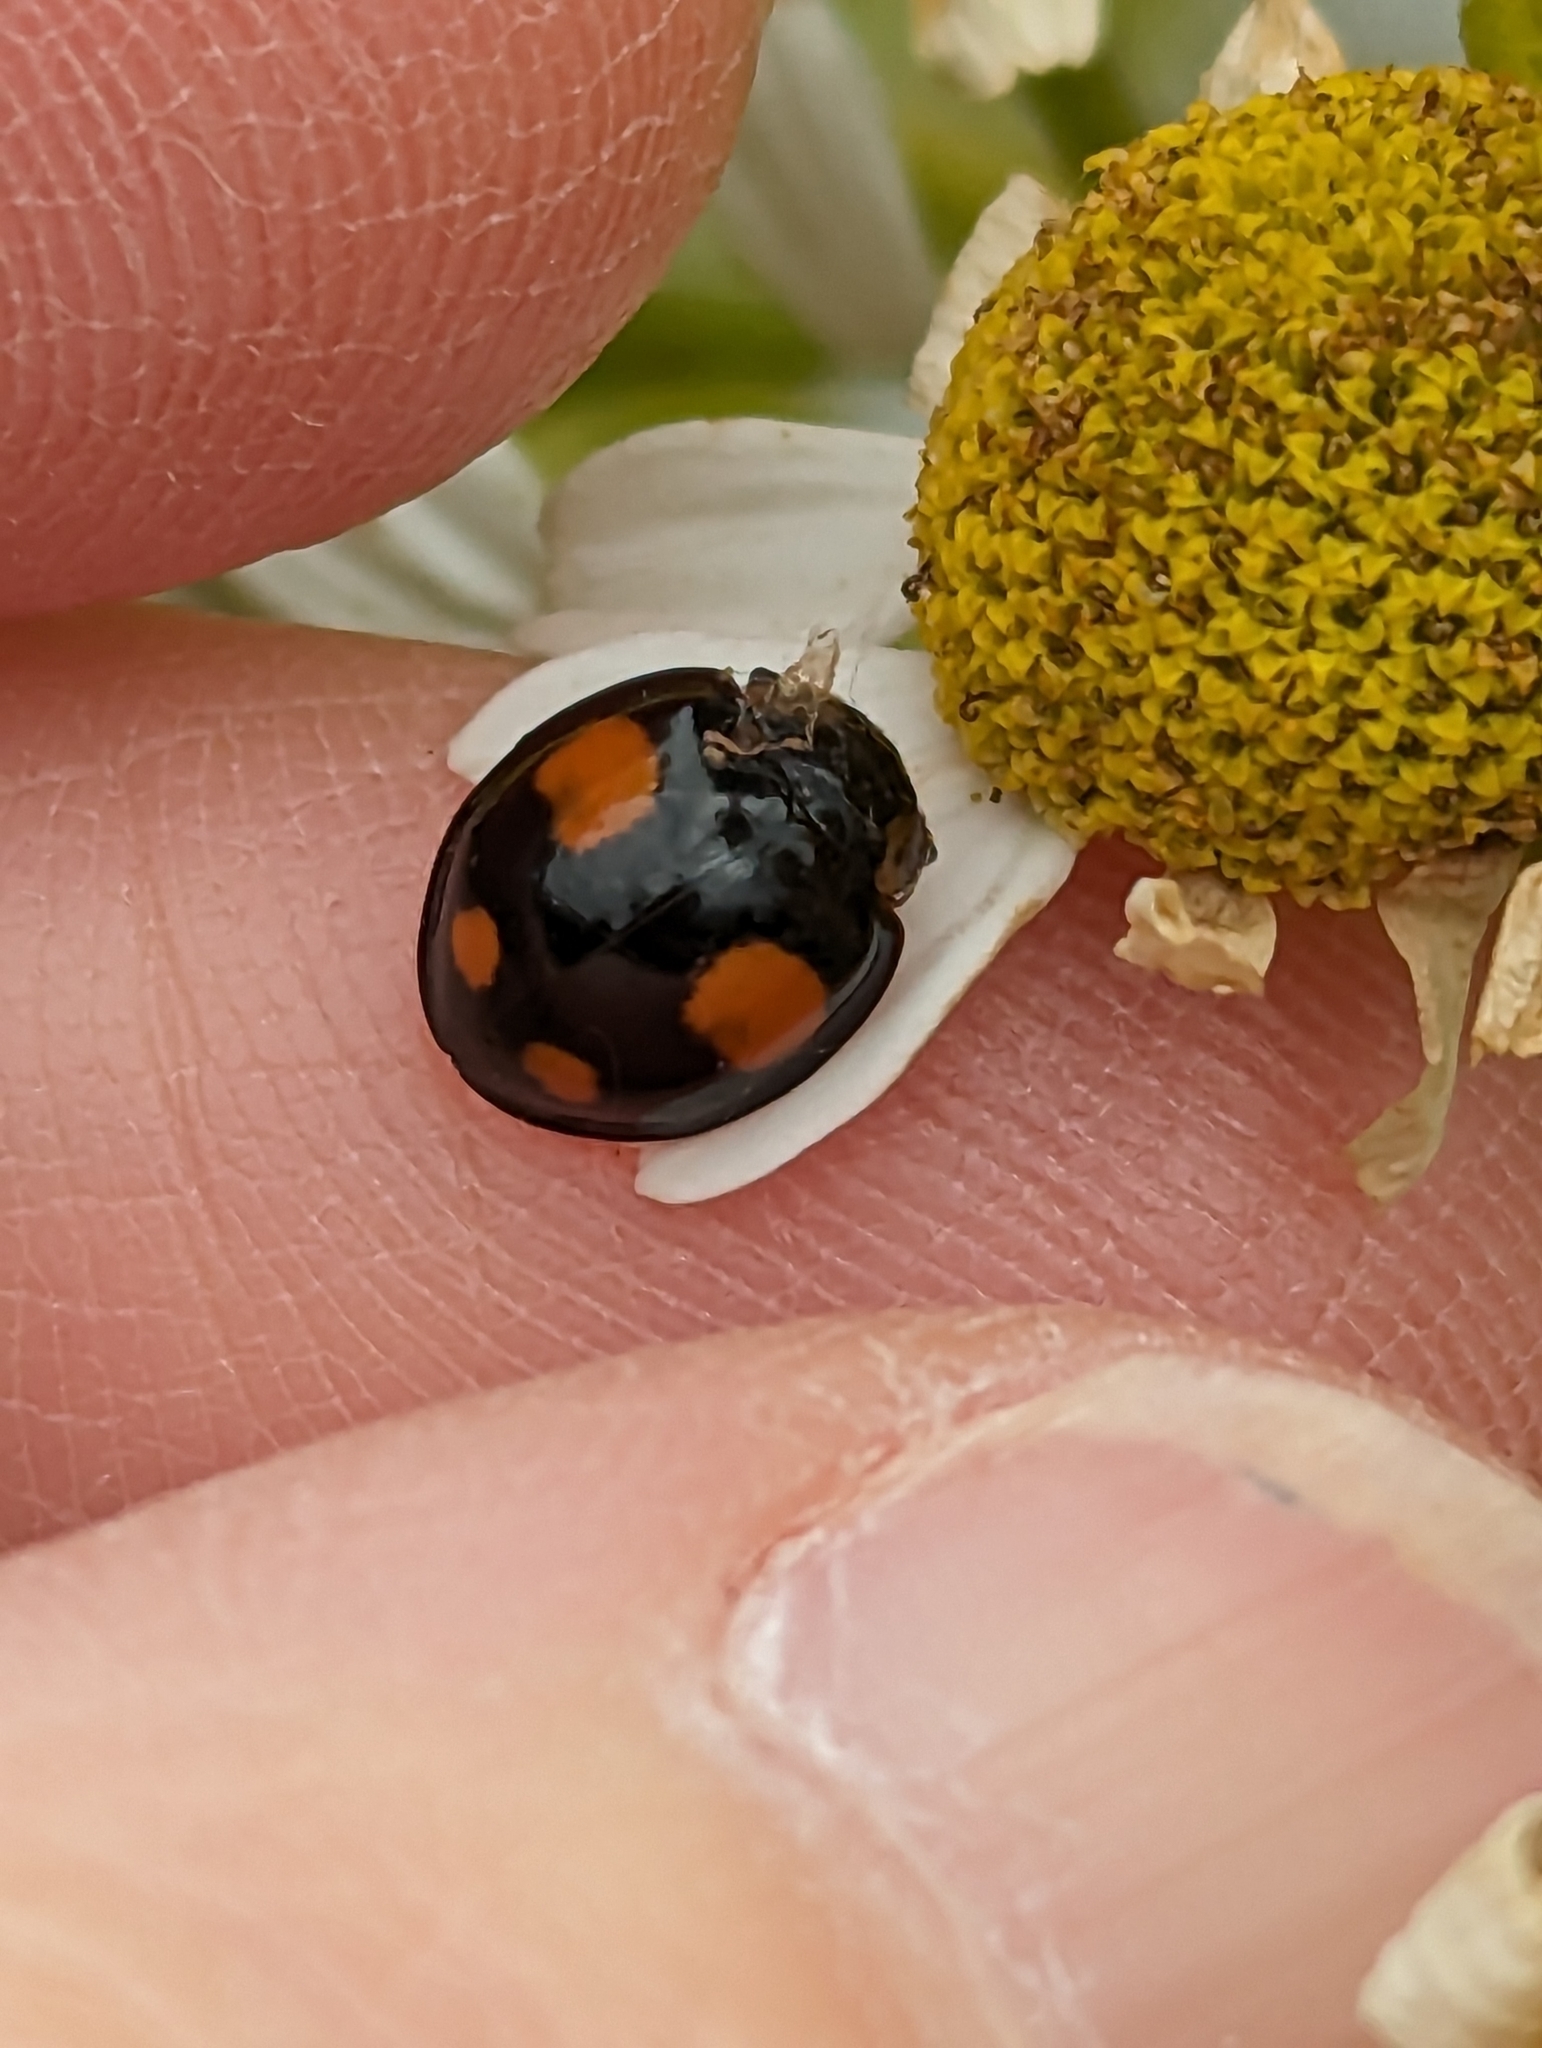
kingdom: Animalia
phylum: Arthropoda
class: Insecta
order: Coleoptera
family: Coccinellidae
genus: Harmonia
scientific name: Harmonia axyridis
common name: Harlequin ladybird
